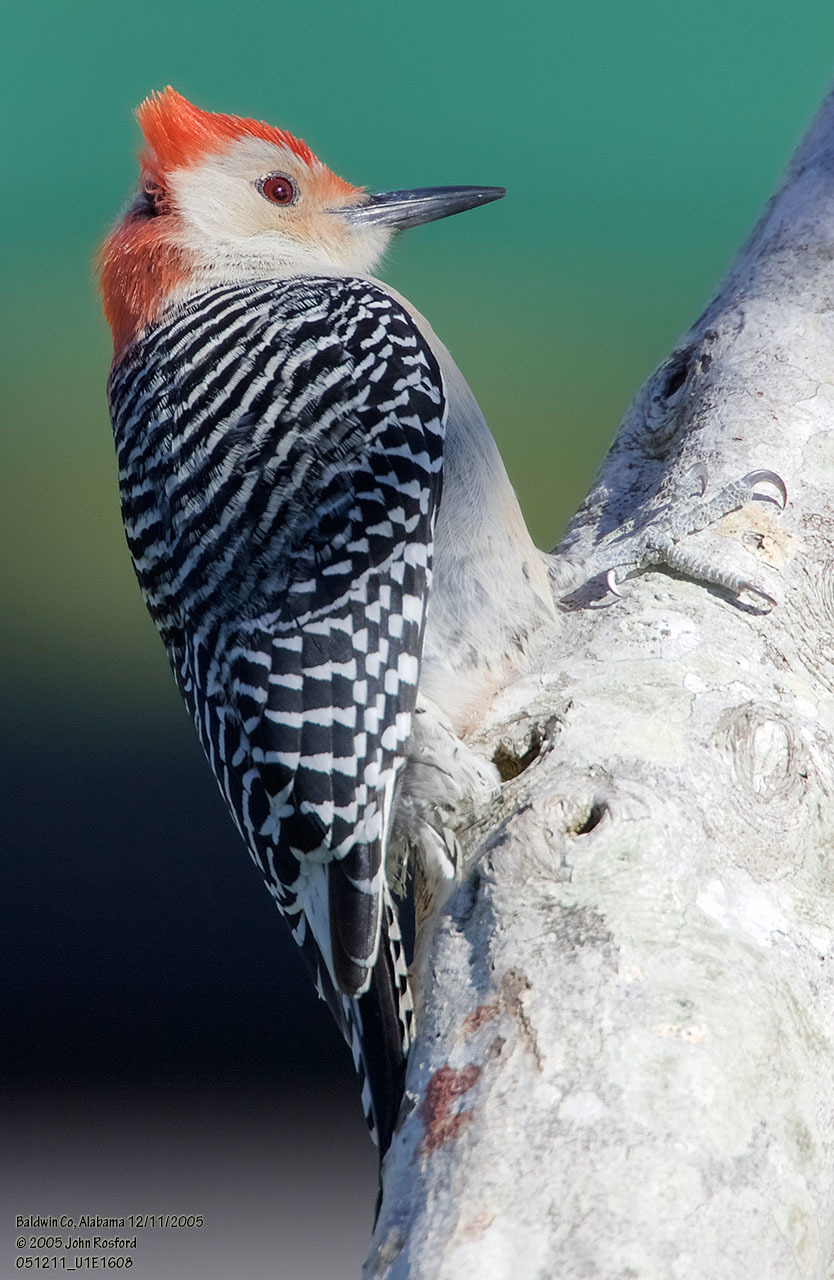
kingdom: Animalia
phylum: Chordata
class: Aves
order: Piciformes
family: Picidae
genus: Melanerpes
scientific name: Melanerpes carolinus
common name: Red-bellied woodpecker
